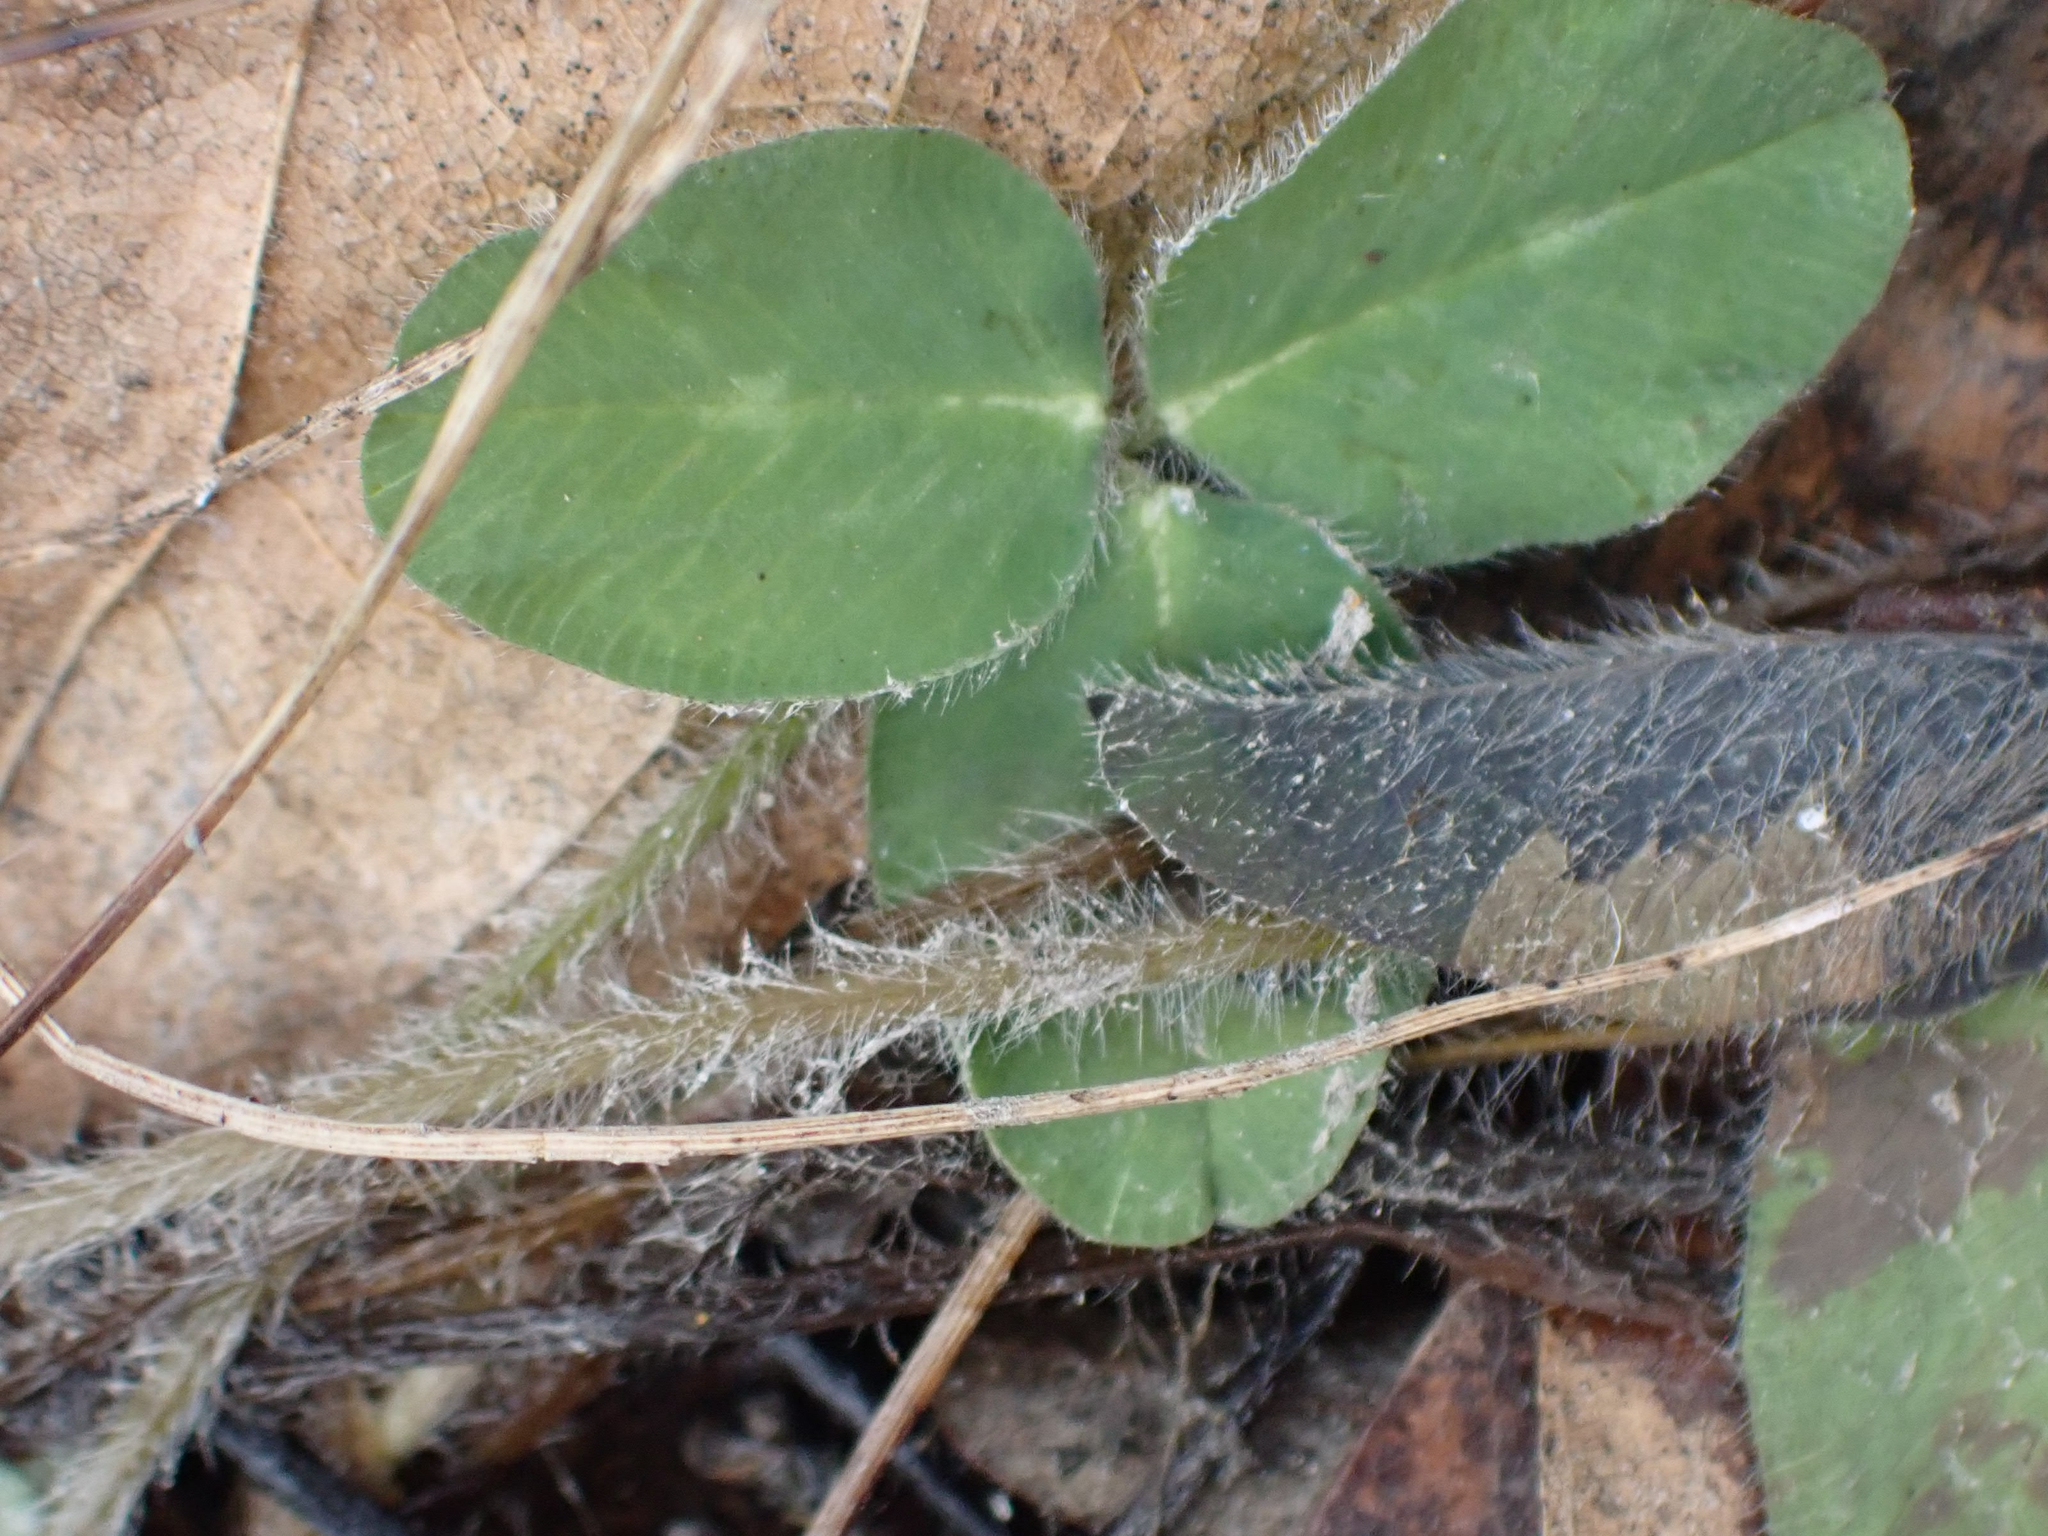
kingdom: Plantae
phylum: Tracheophyta
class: Magnoliopsida
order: Fabales
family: Fabaceae
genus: Trifolium
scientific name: Trifolium pratense
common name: Red clover
